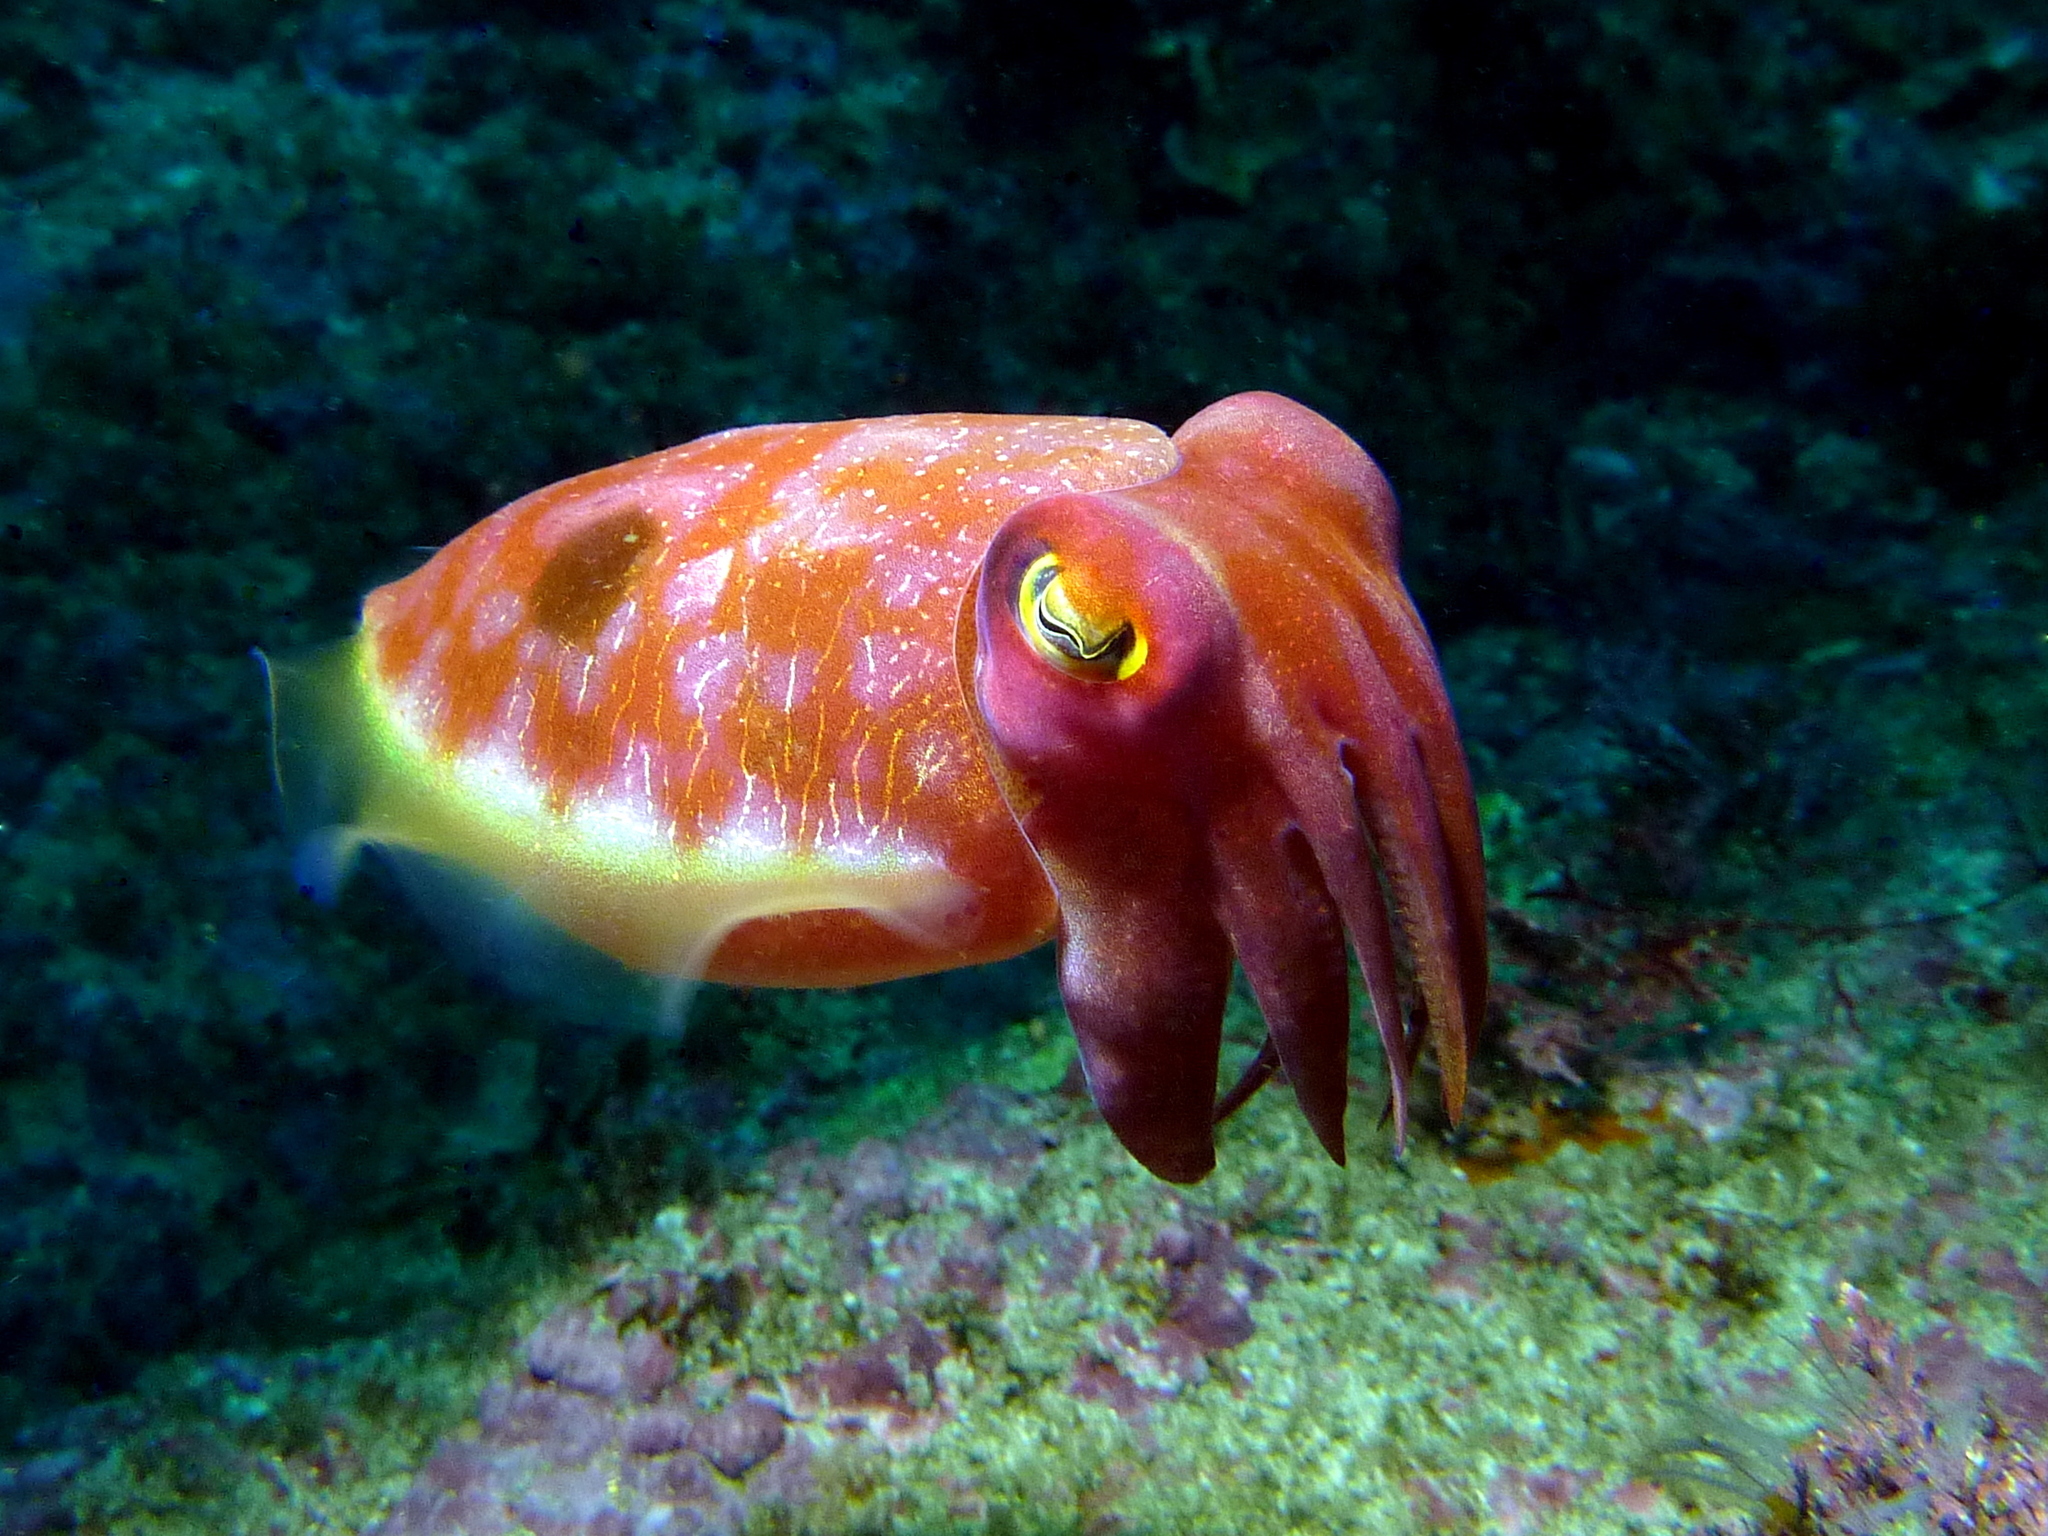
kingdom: Animalia
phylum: Mollusca
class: Cephalopoda
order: Sepiida
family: Sepiidae
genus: Sepia
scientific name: Sepia grahami
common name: Ken's cuttlefish
